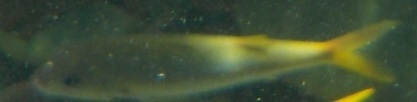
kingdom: Animalia
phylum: Chordata
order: Perciformes
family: Mullidae
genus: Mulloidichthys
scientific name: Mulloidichthys vanicolensis
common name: Yellowfin goatfish
